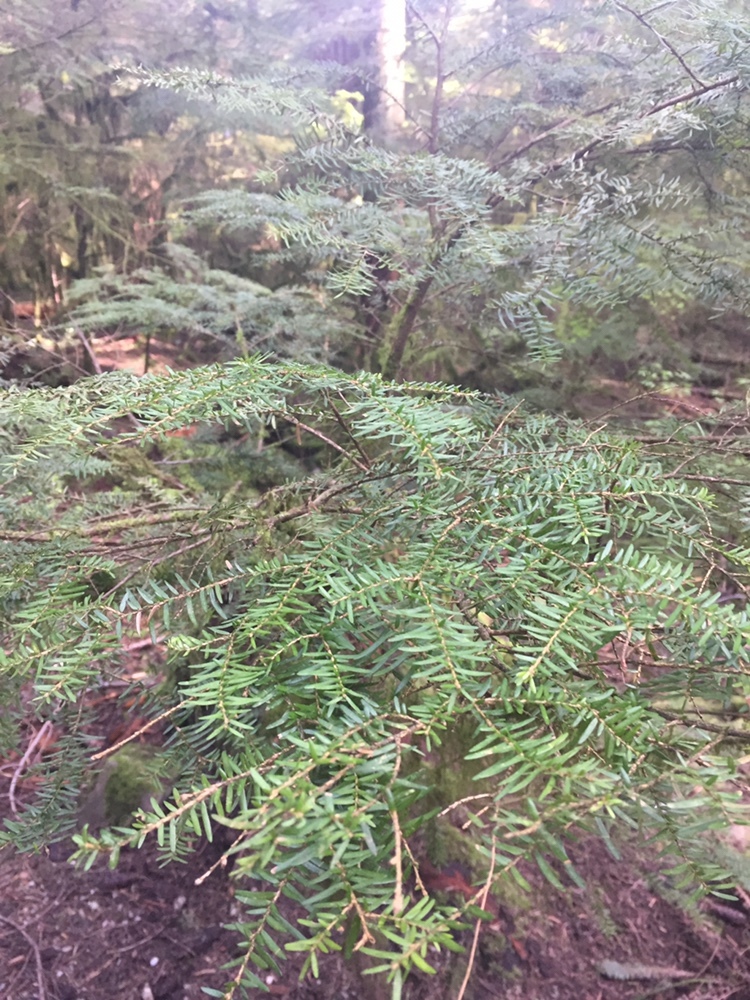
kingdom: Plantae
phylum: Tracheophyta
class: Pinopsida
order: Pinales
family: Pinaceae
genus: Tsuga
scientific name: Tsuga heterophylla
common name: Western hemlock
